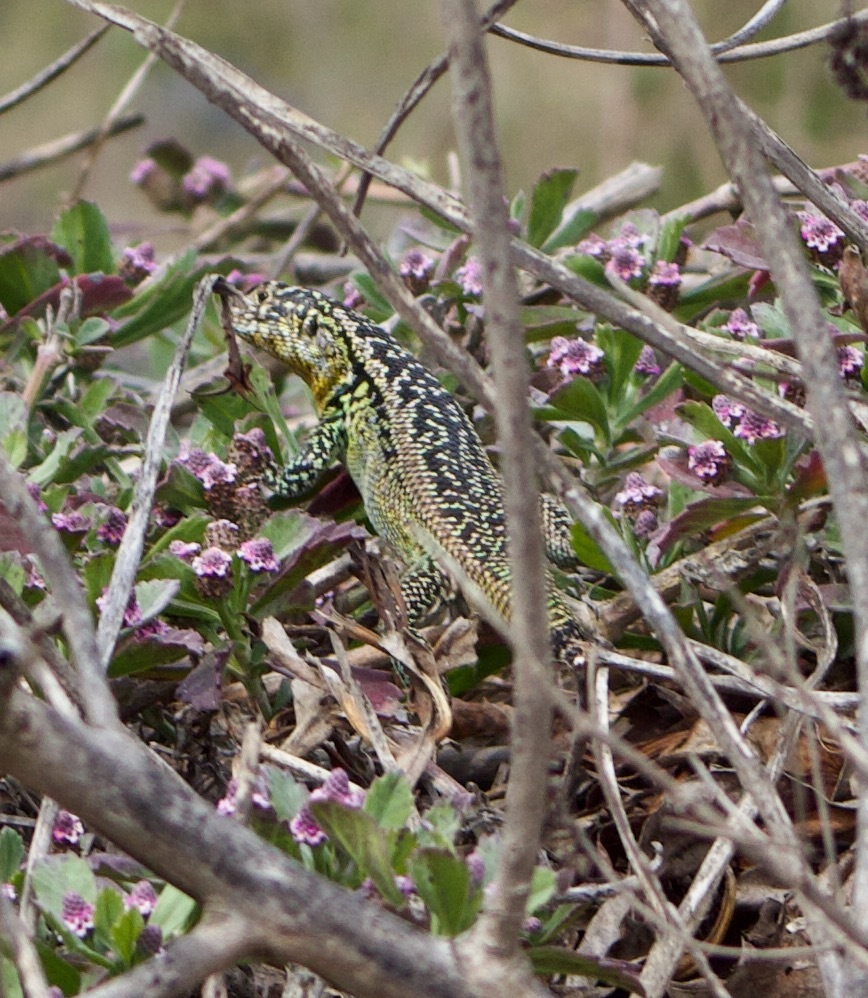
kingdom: Animalia
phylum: Chordata
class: Squamata
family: Liolaemidae
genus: Liolaemus
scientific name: Liolaemus zapallarensis
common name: Zapallaren tree iguana
